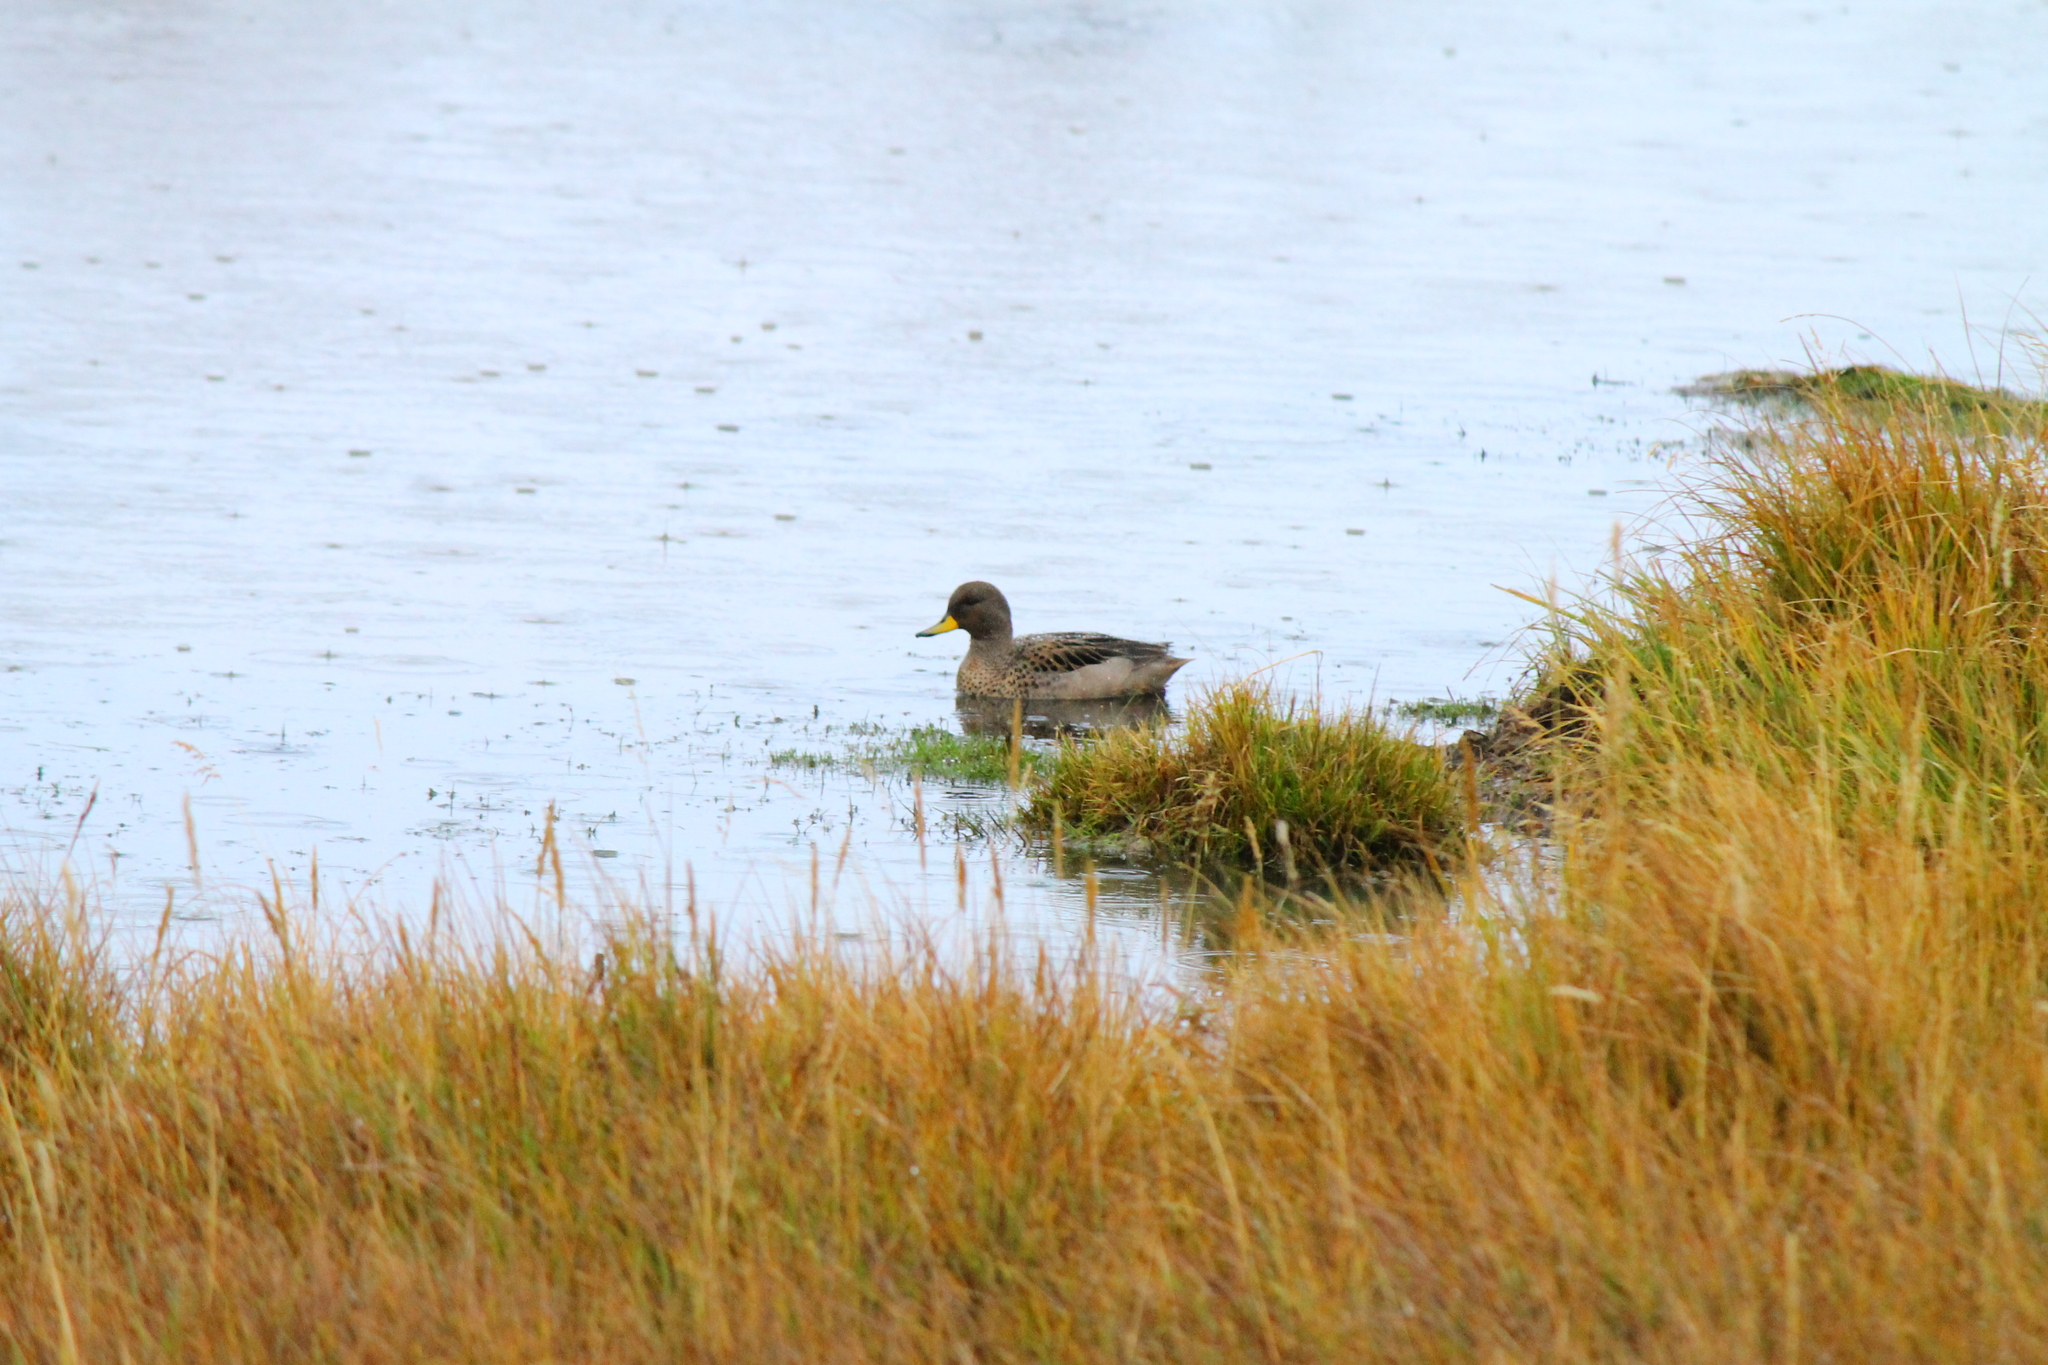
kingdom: Animalia
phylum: Chordata
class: Aves
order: Anseriformes
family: Anatidae
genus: Anas
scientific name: Anas flavirostris
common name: Yellow-billed teal
